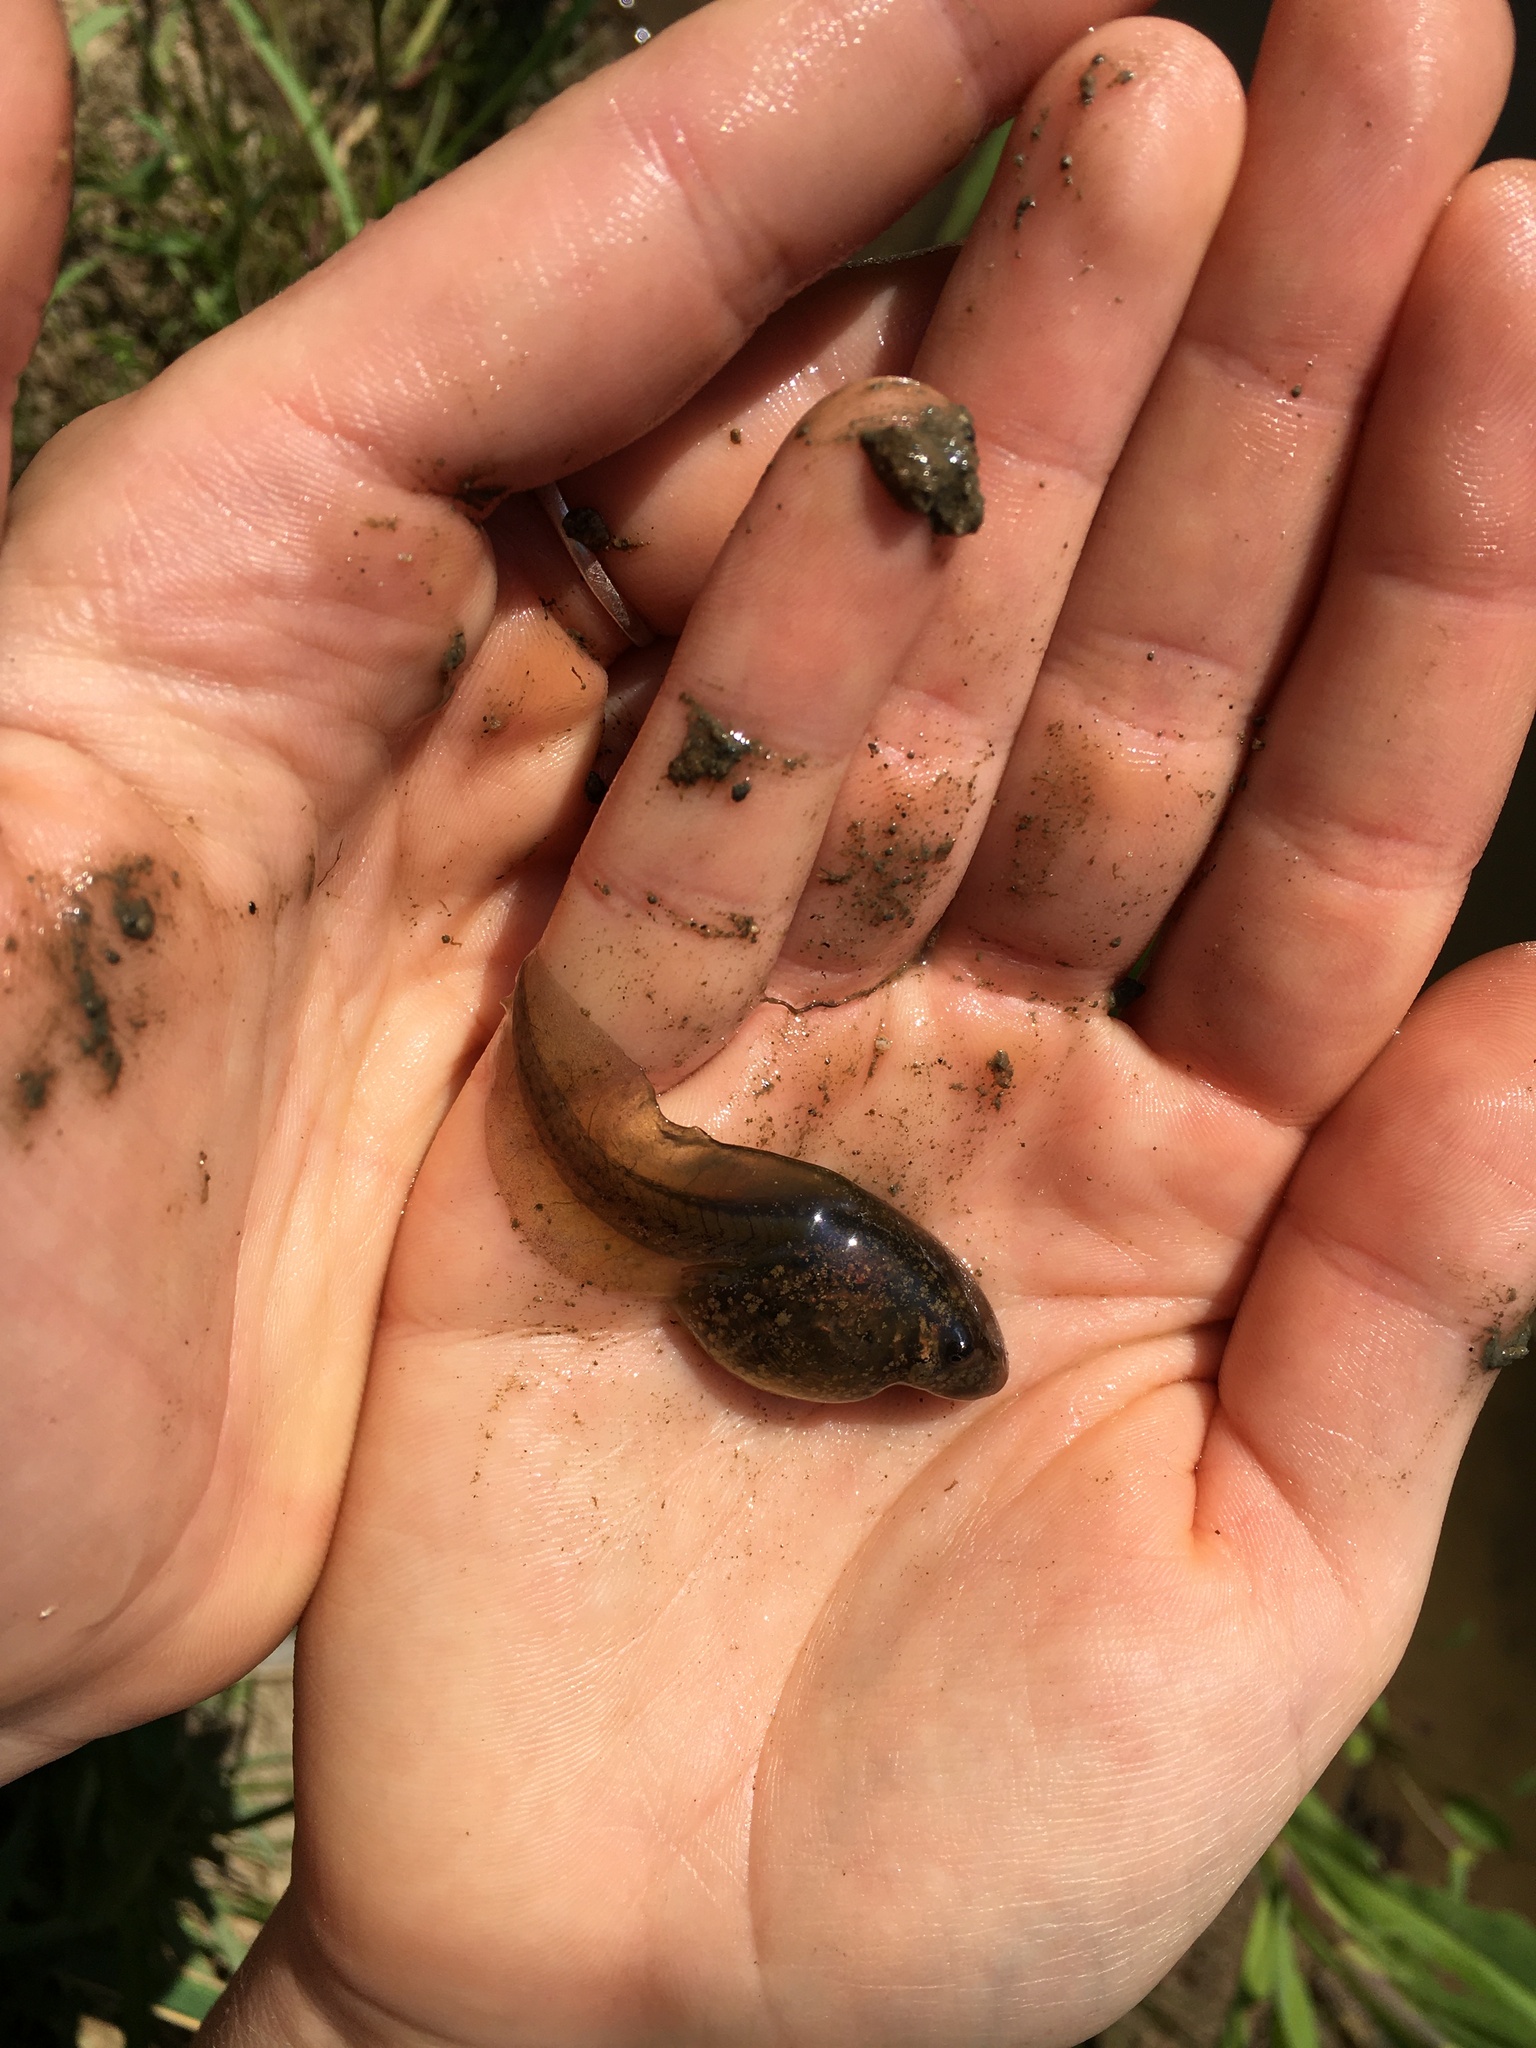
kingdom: Animalia
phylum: Chordata
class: Amphibia
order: Anura
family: Pelobatidae
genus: Pelobates
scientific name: Pelobates fuscus
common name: Common eurasian spadefoot toad
